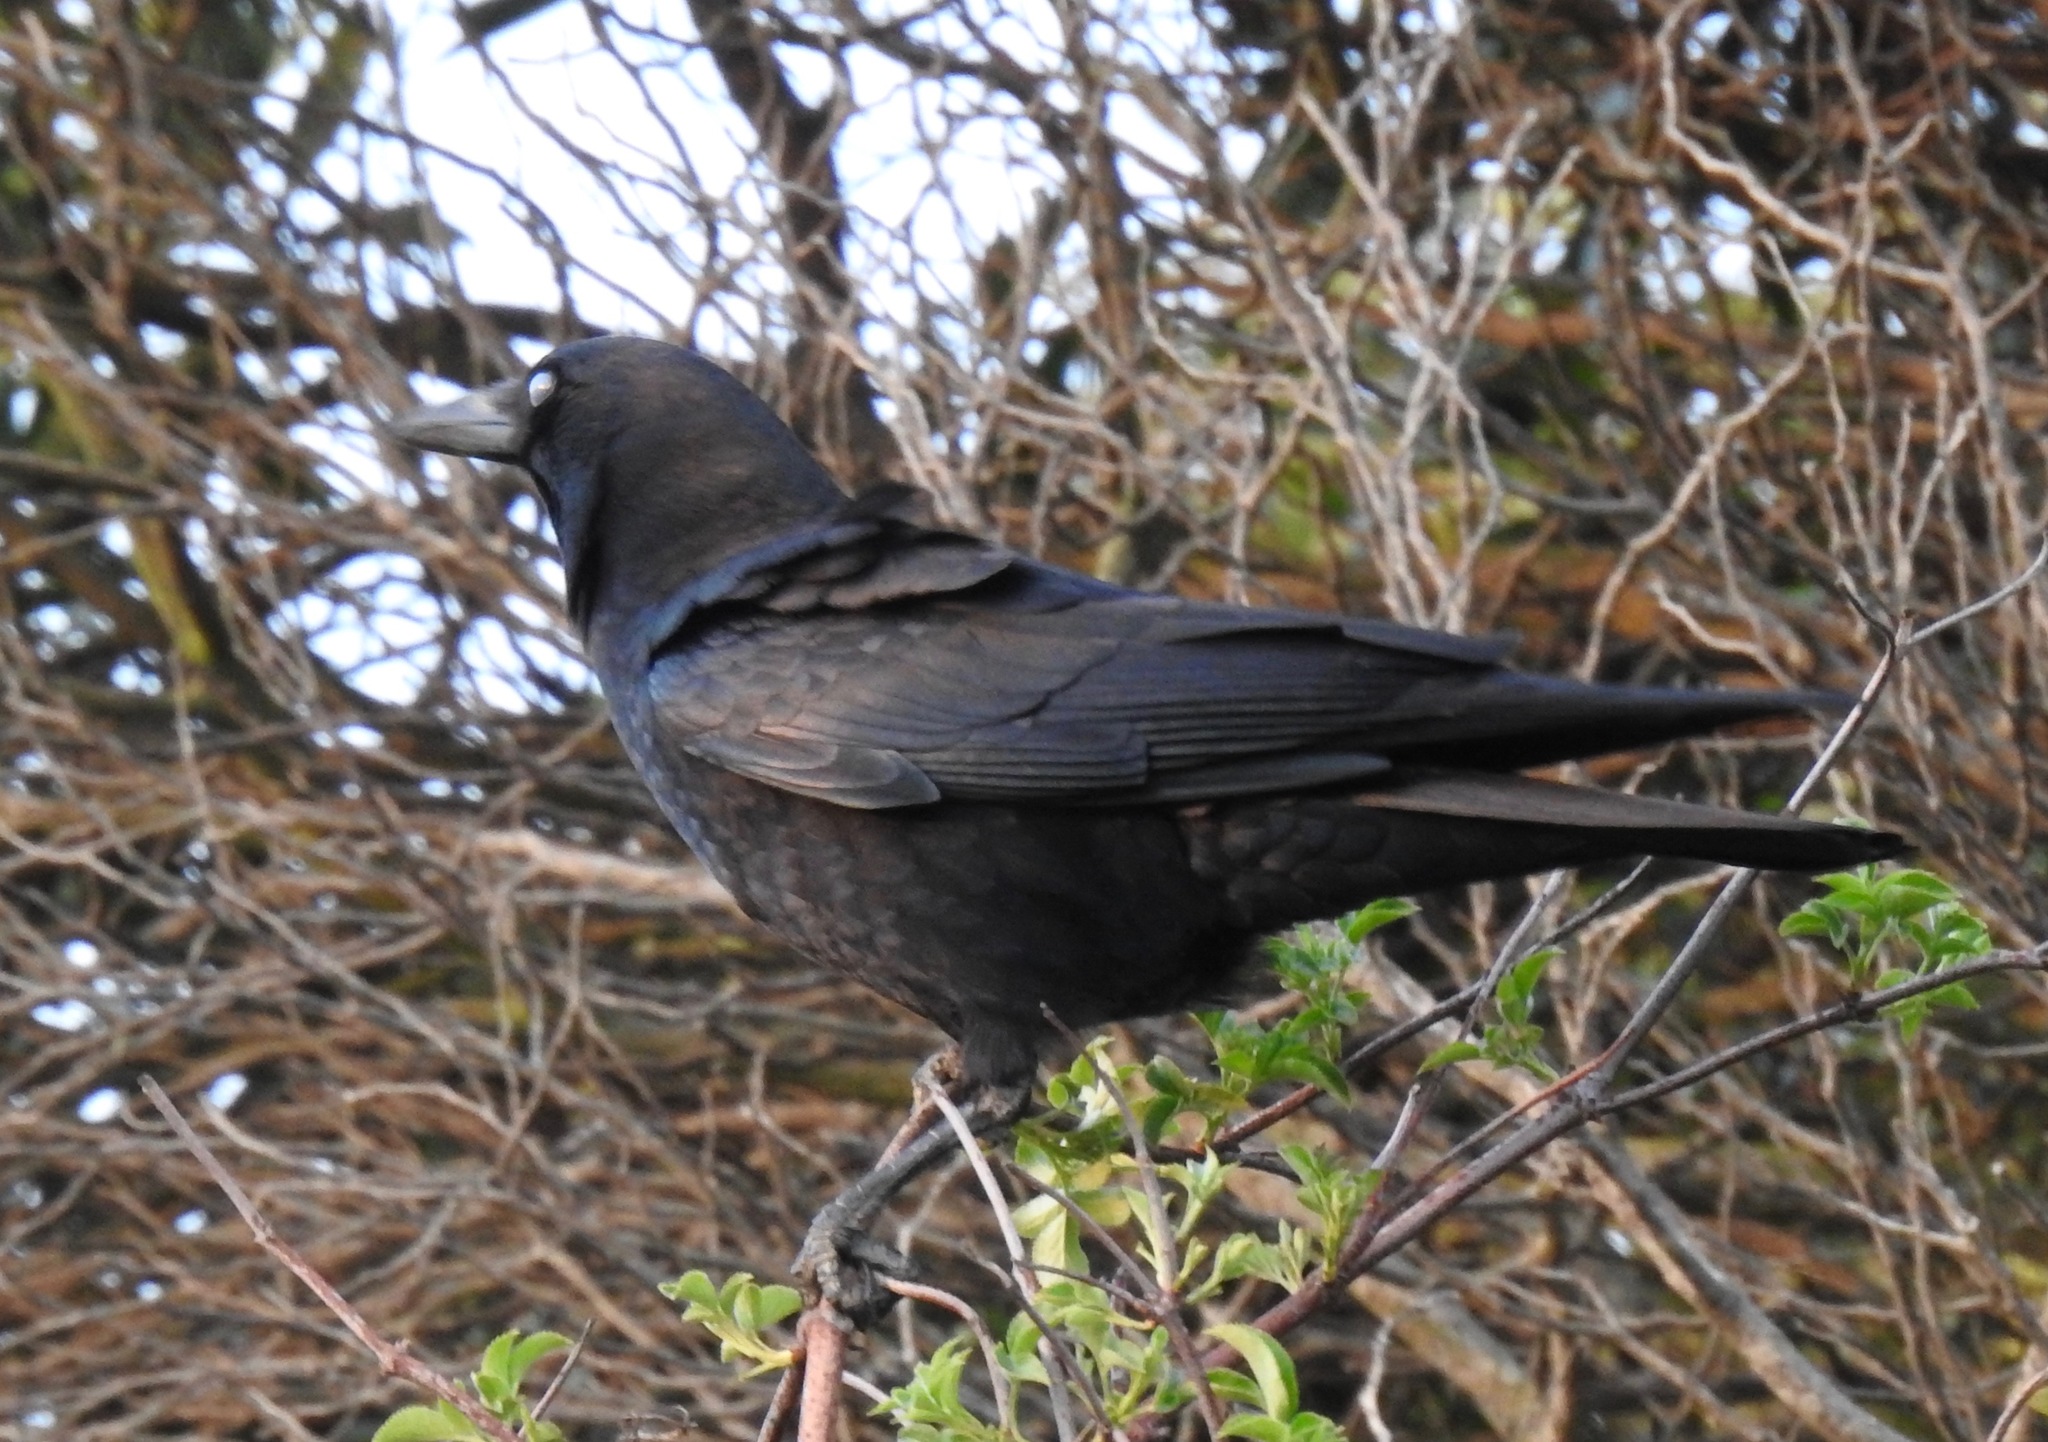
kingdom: Animalia
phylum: Chordata
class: Aves
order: Passeriformes
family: Corvidae
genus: Corvus
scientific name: Corvus brachyrhynchos
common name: American crow
